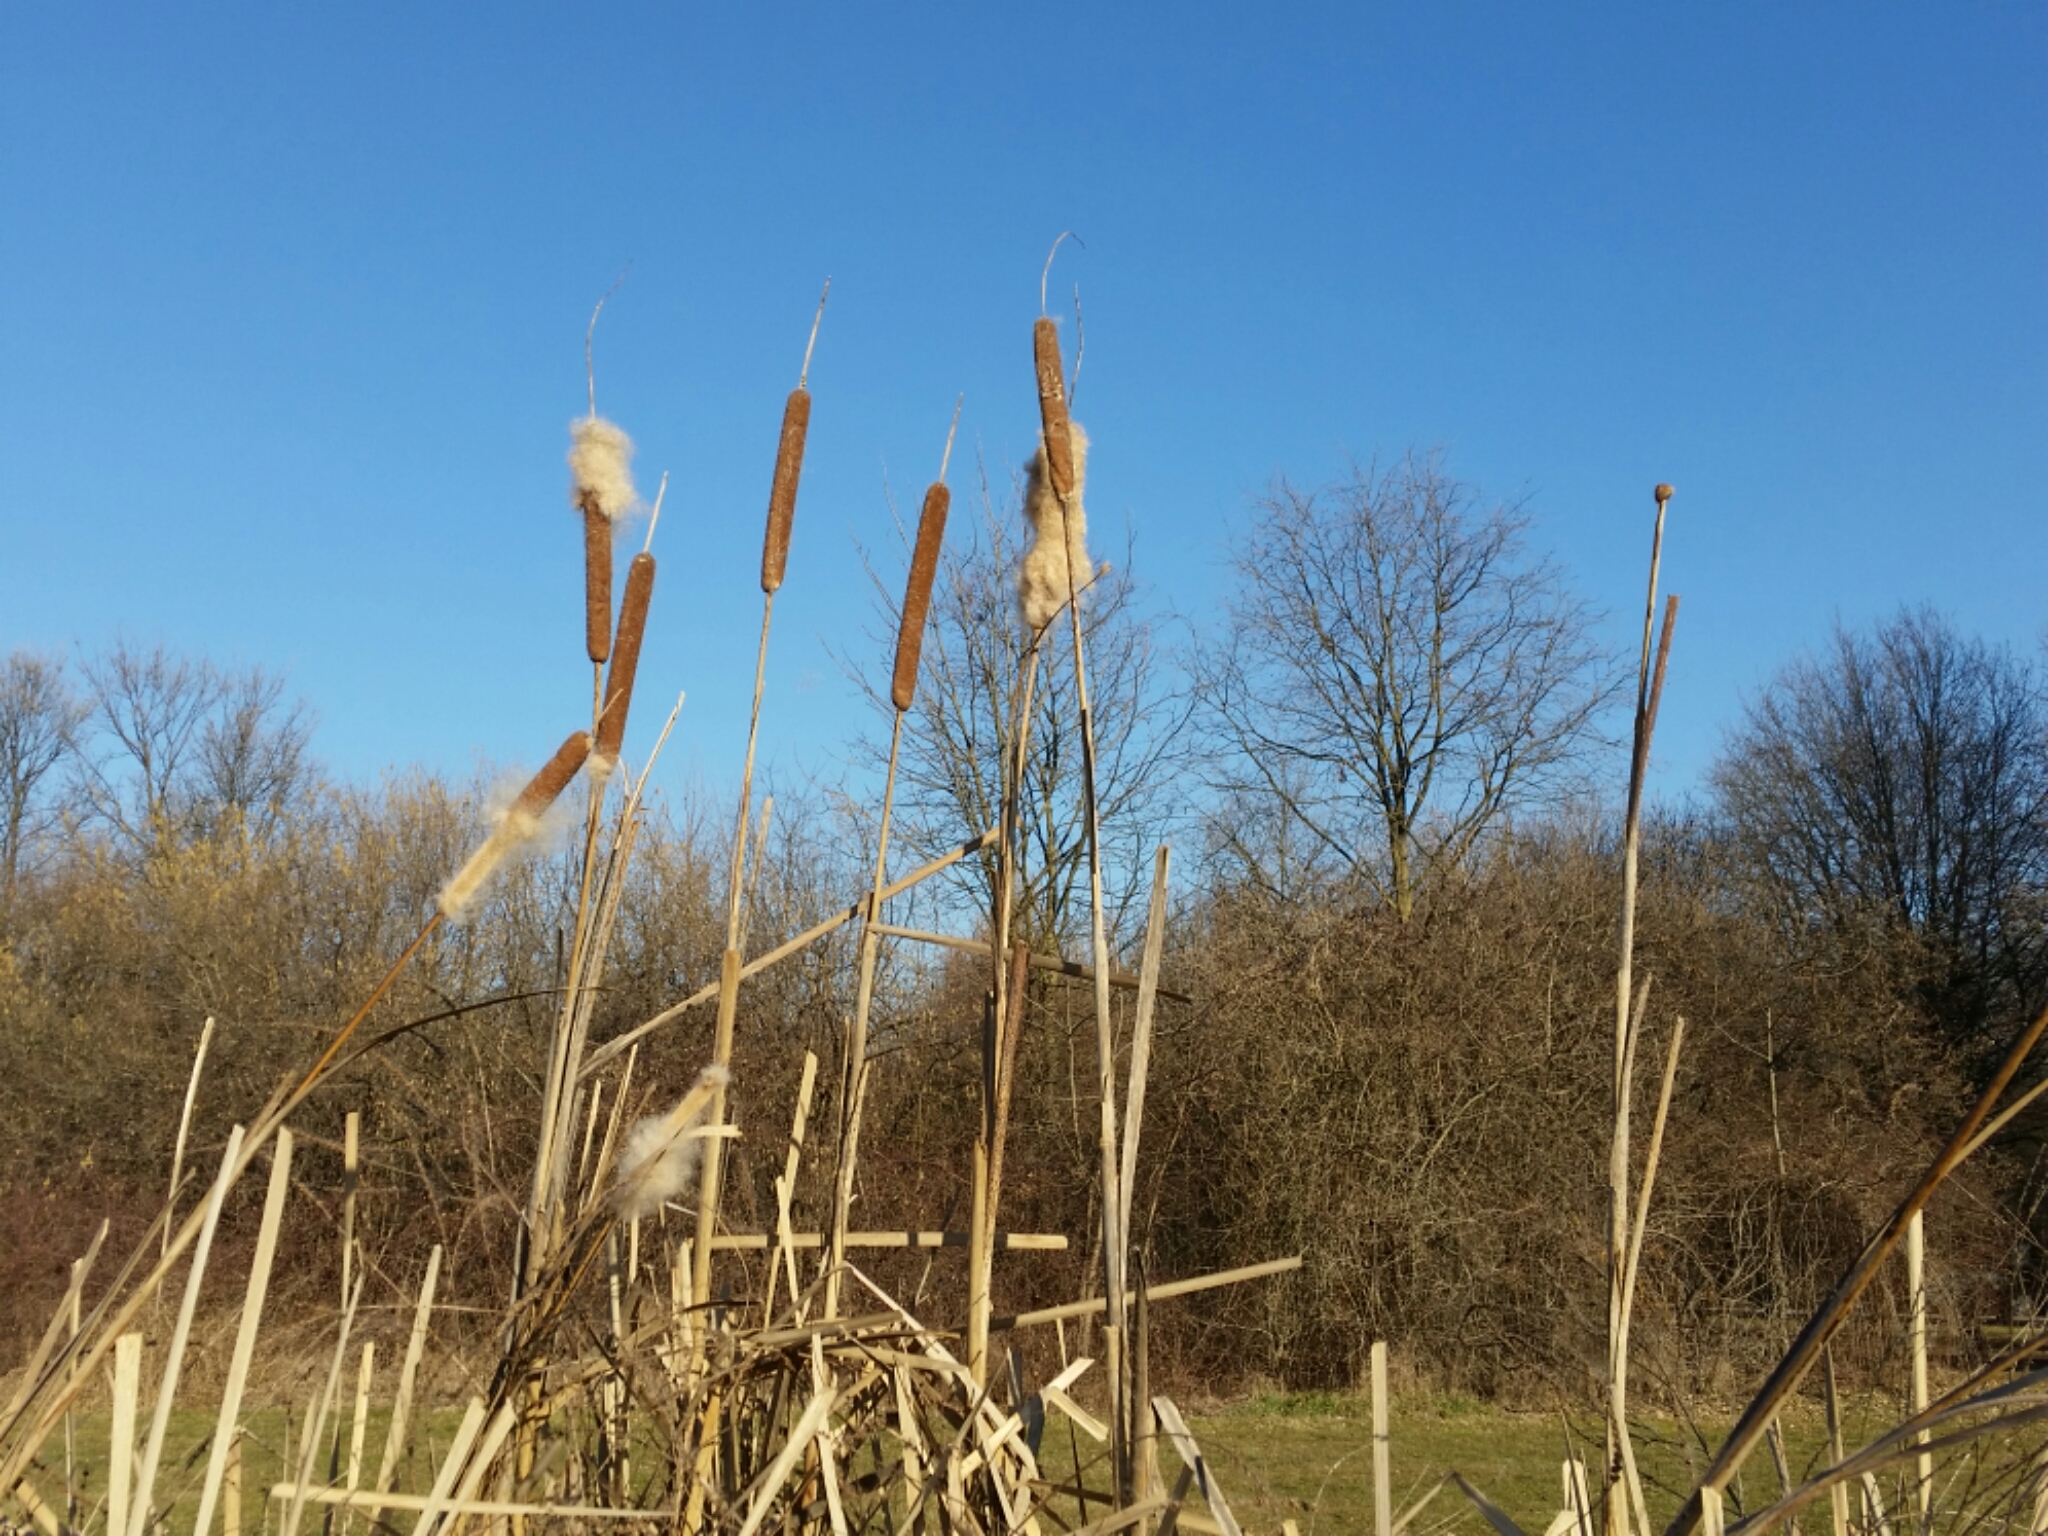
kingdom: Plantae
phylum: Tracheophyta
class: Liliopsida
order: Poales
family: Typhaceae
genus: Typha
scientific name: Typha latifolia
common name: Broadleaf cattail
